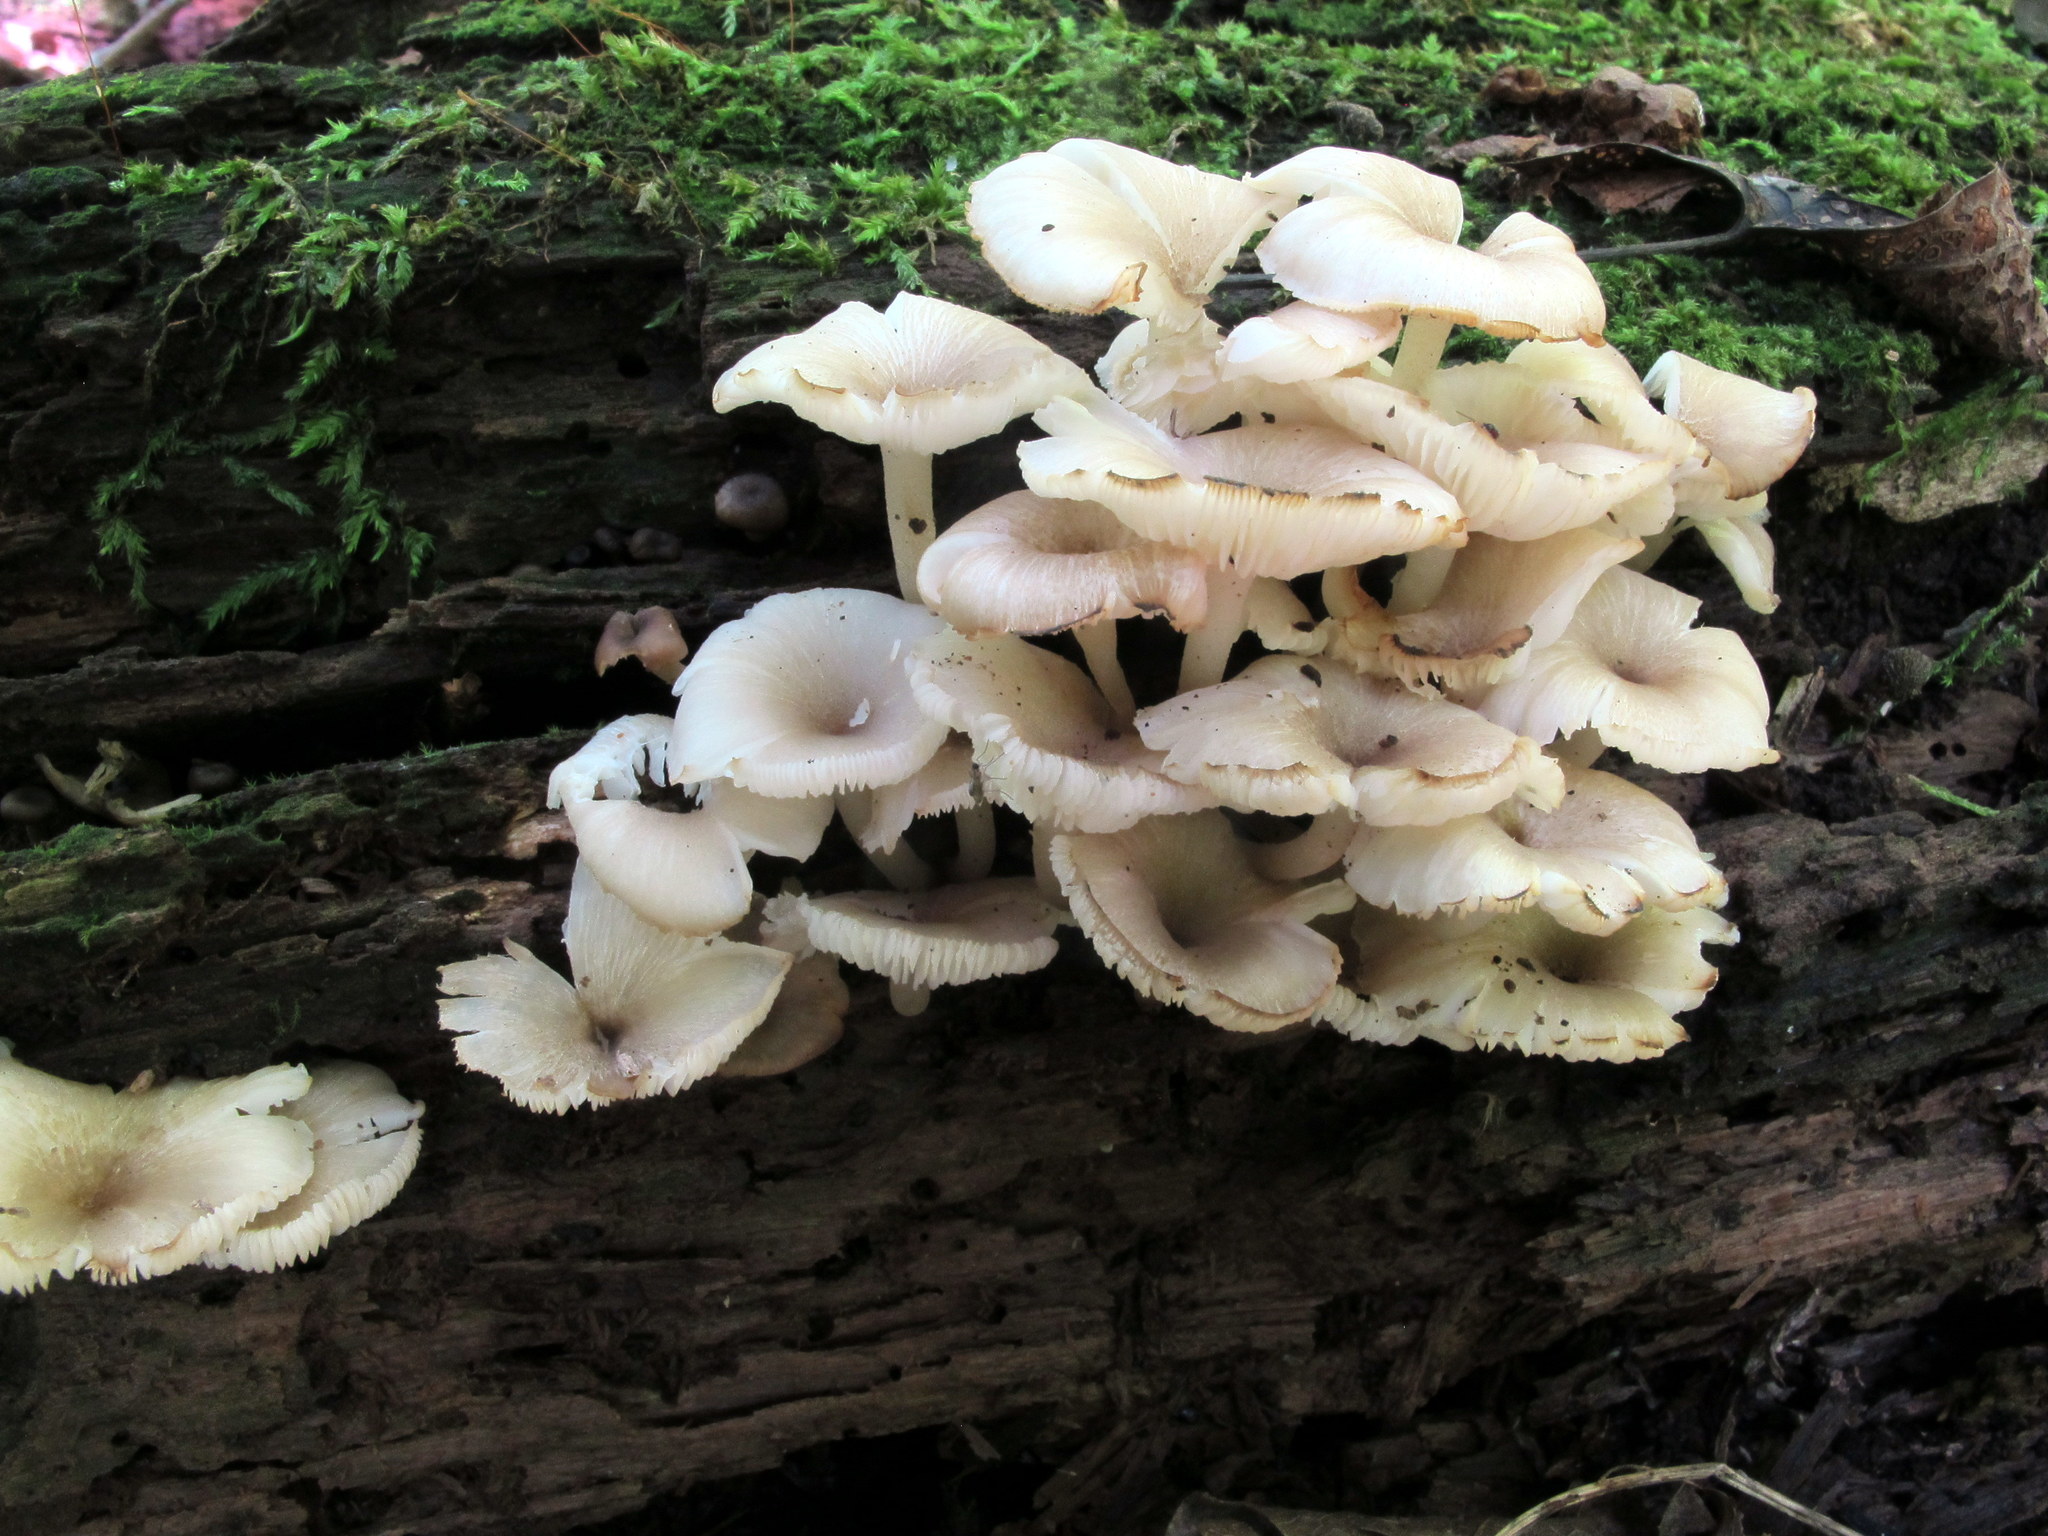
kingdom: Fungi
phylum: Basidiomycota
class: Agaricomycetes
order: Agaricales
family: Marasmiaceae
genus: Clitocybula
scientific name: Clitocybula abundans
